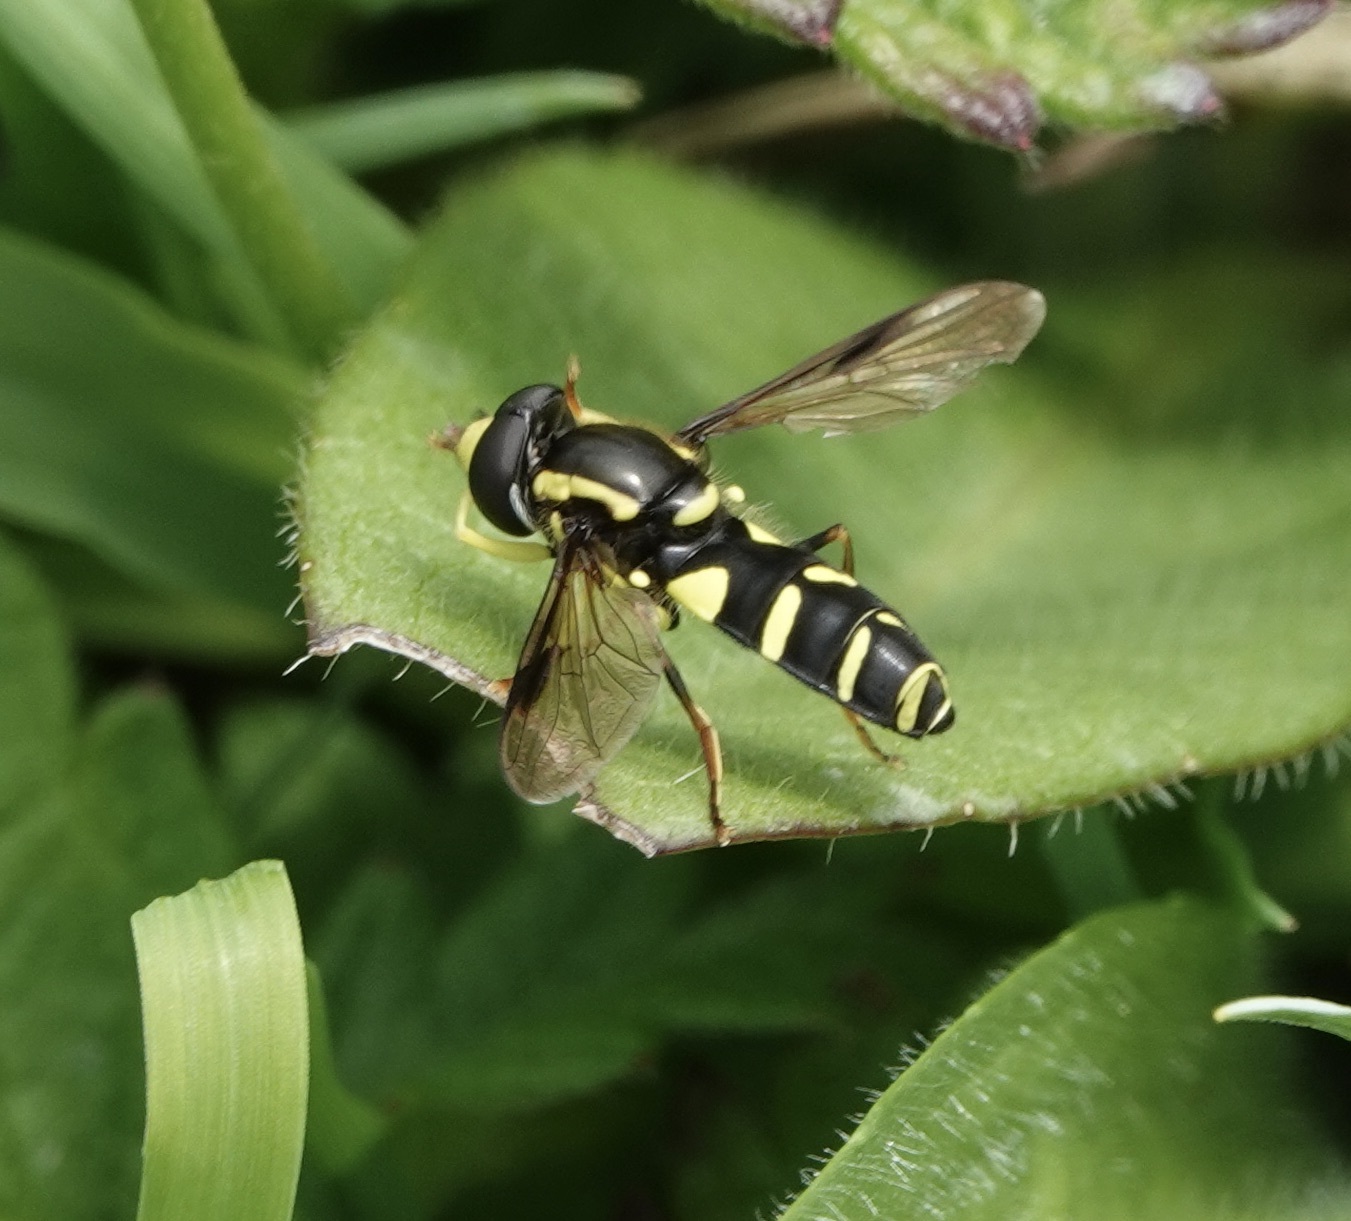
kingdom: Animalia
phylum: Arthropoda
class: Insecta
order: Diptera
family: Syrphidae
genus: Philhelius
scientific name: Philhelius pedissequum
